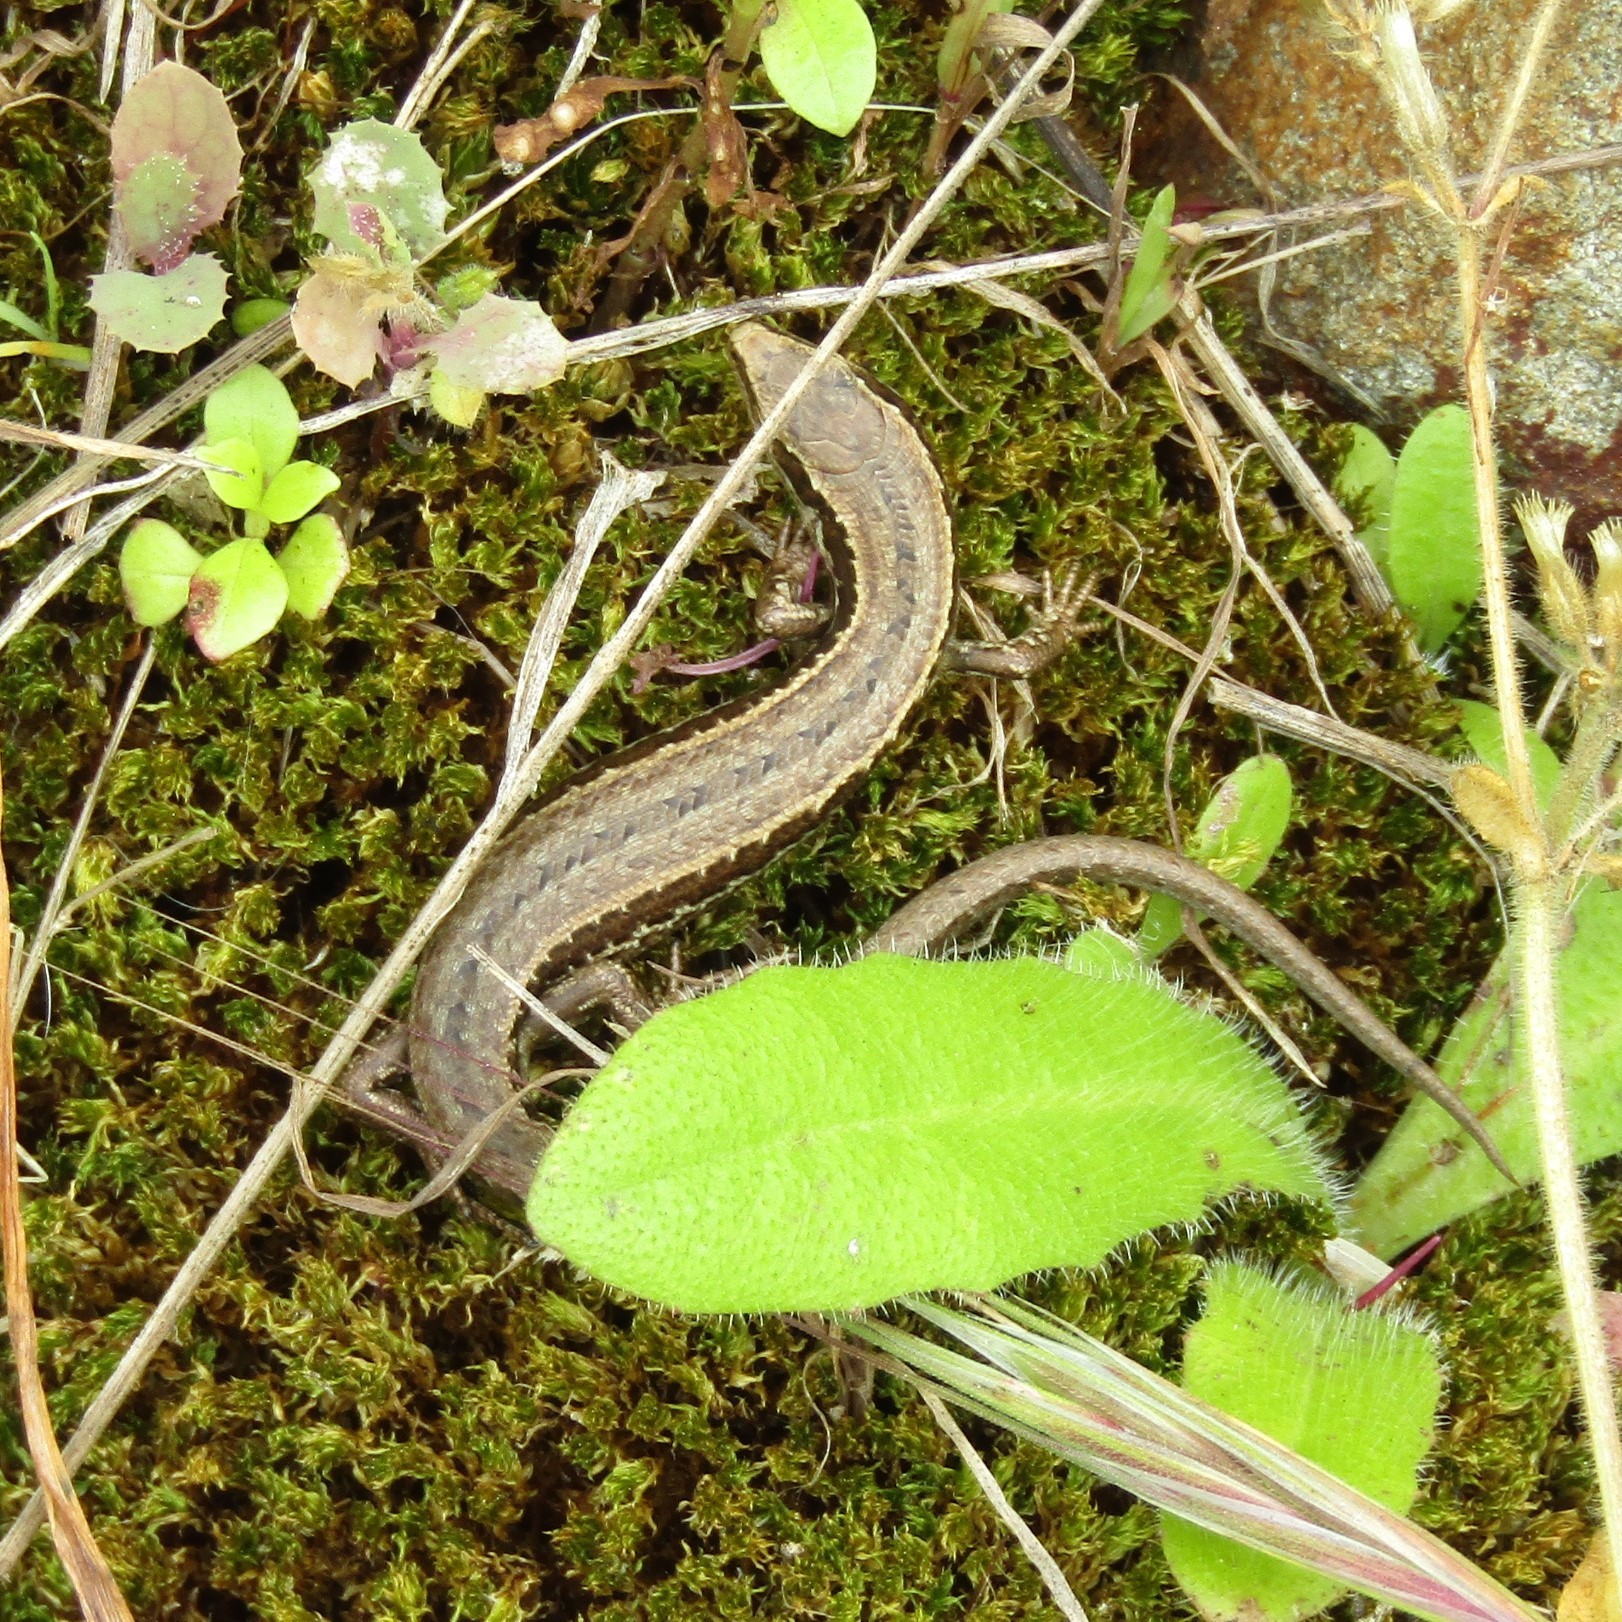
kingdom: Animalia
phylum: Chordata
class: Squamata
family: Scincidae
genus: Oligosoma
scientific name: Oligosoma polychroma
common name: Common new zealand skink
